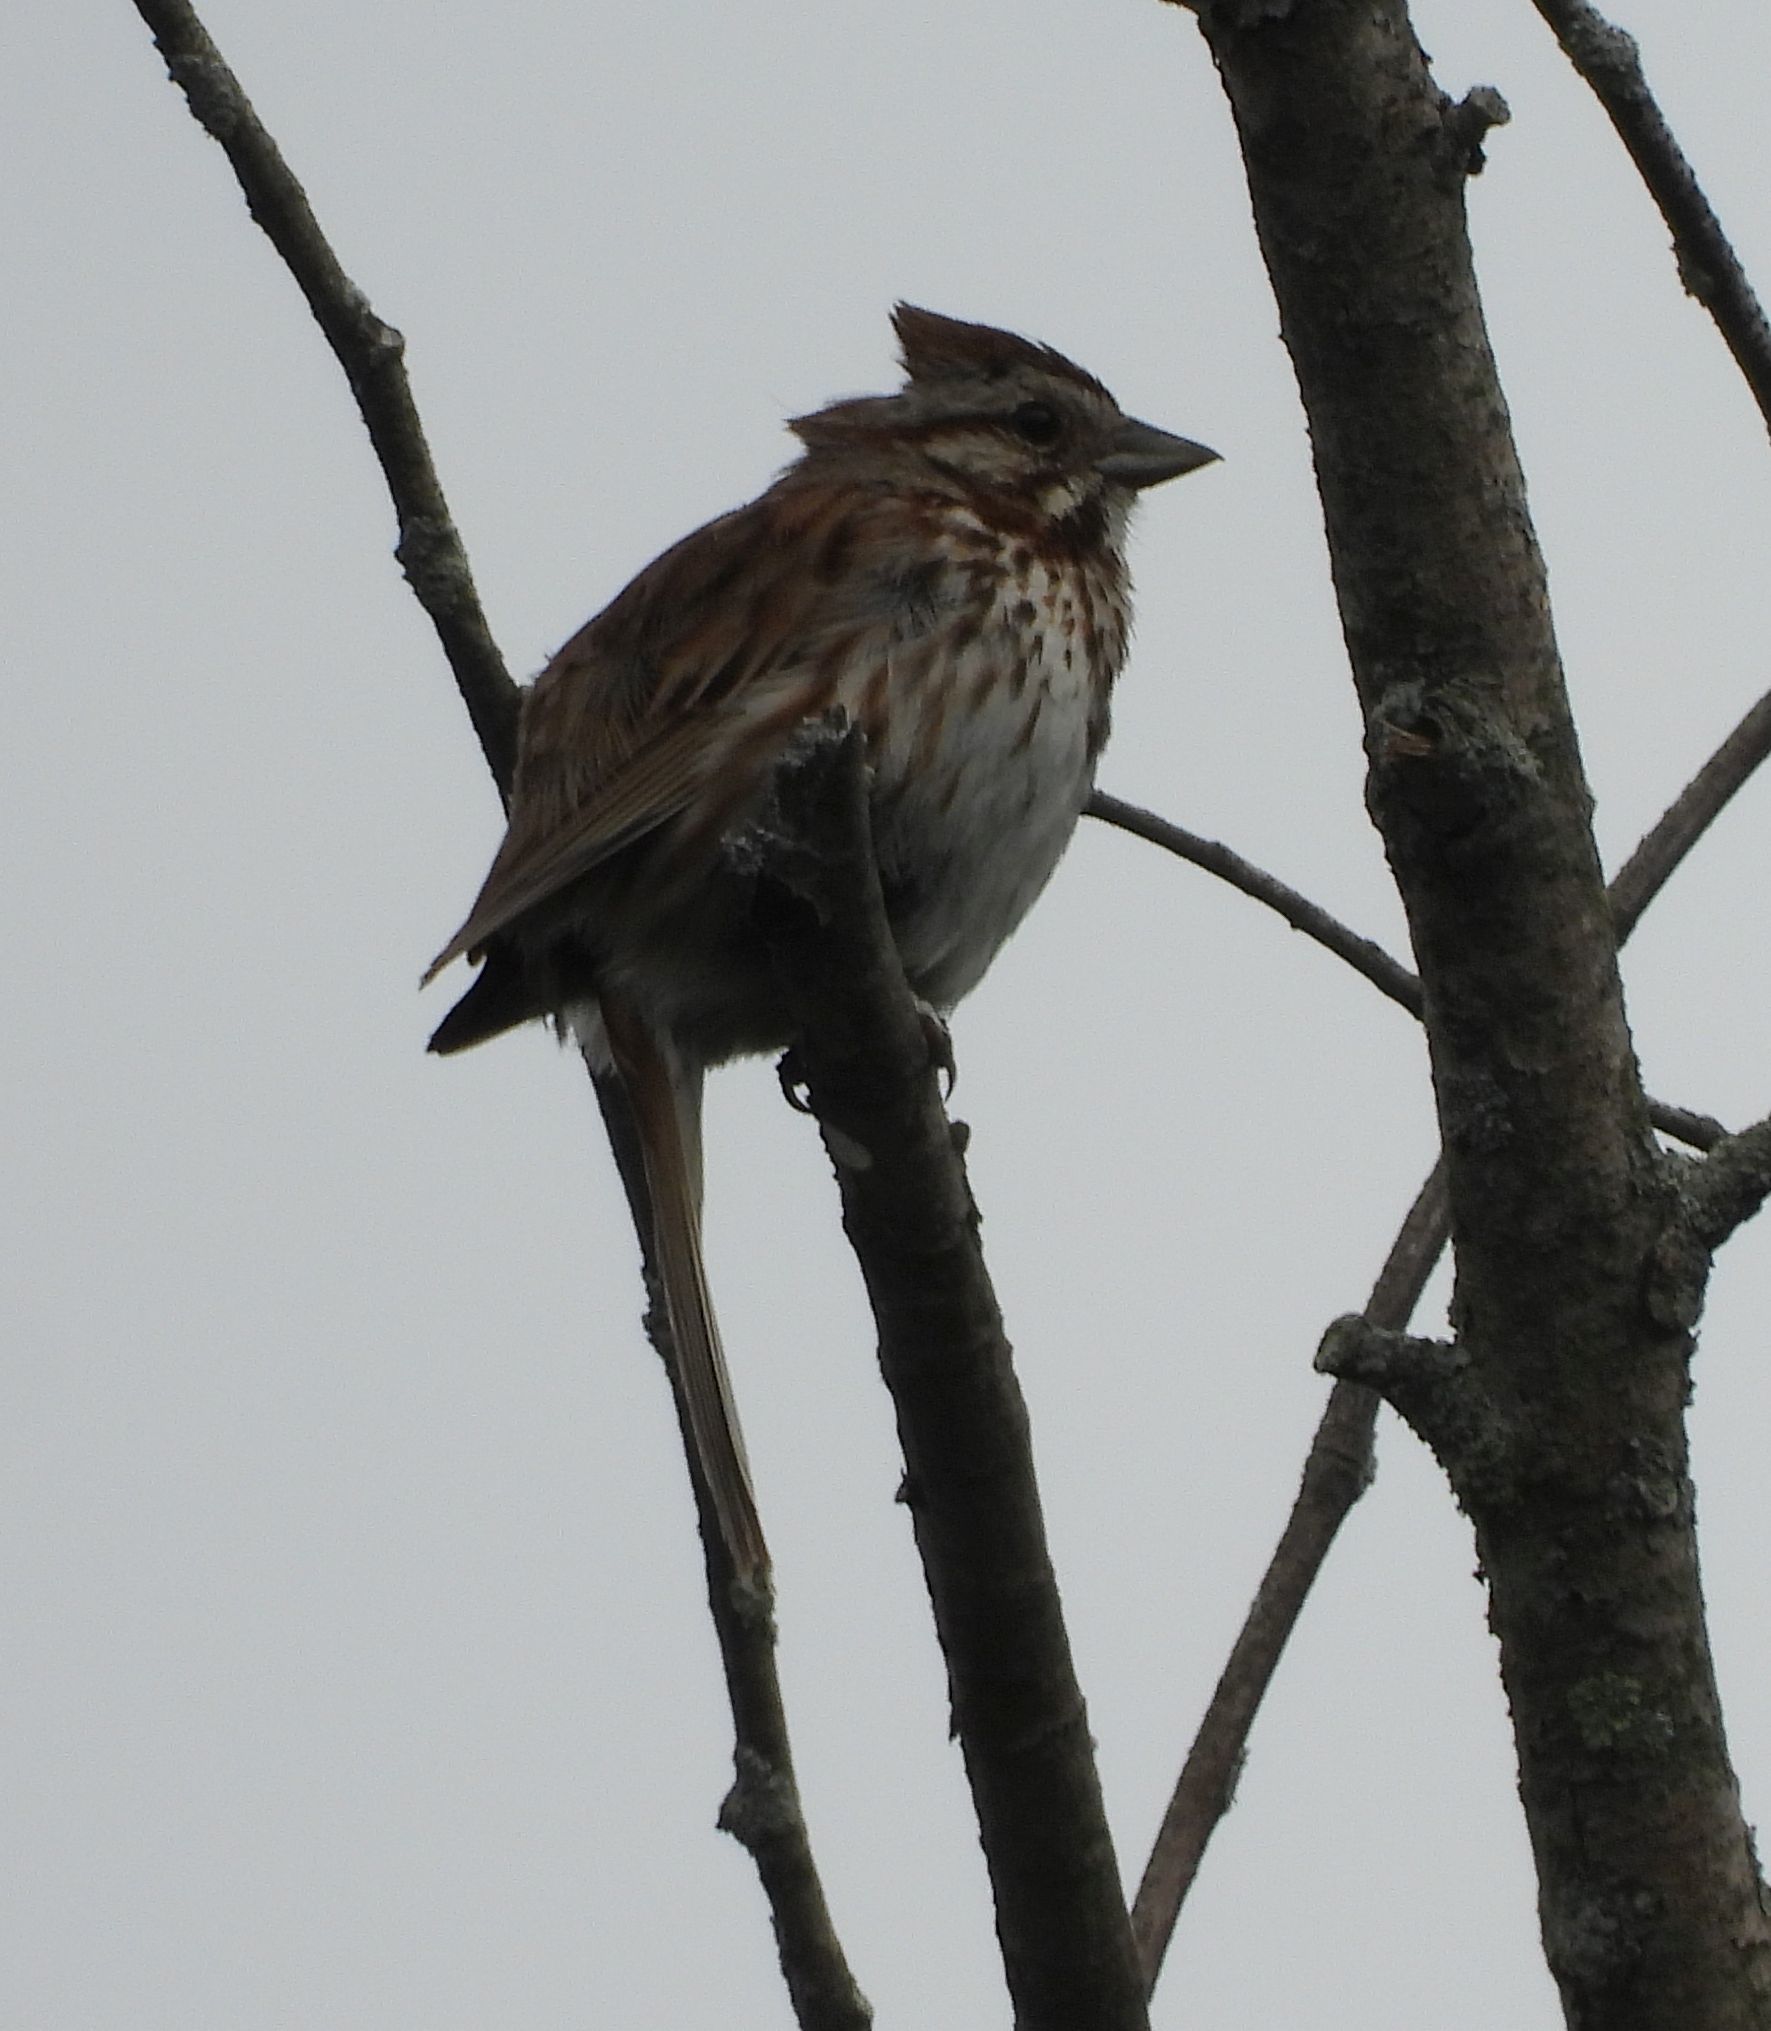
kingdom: Animalia
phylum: Chordata
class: Aves
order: Passeriformes
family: Passerellidae
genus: Melospiza
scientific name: Melospiza melodia
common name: Song sparrow
